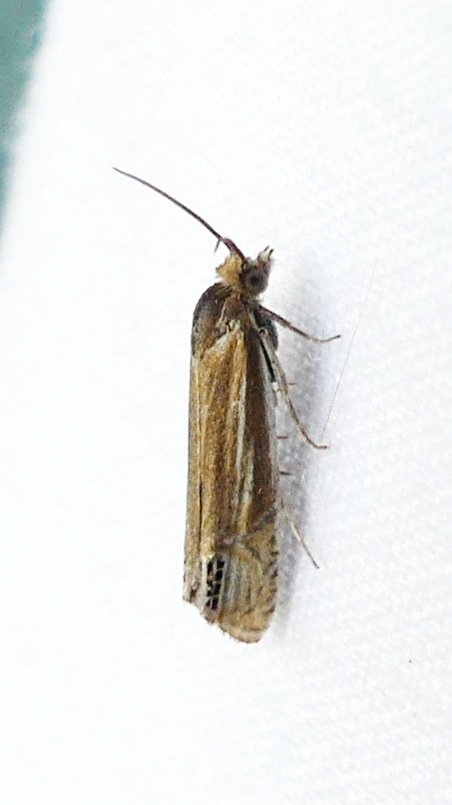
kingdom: Animalia
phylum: Arthropoda
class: Insecta
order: Lepidoptera
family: Tortricidae
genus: Eucosma
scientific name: Eucosma verna
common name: Speckled phaneta moth
